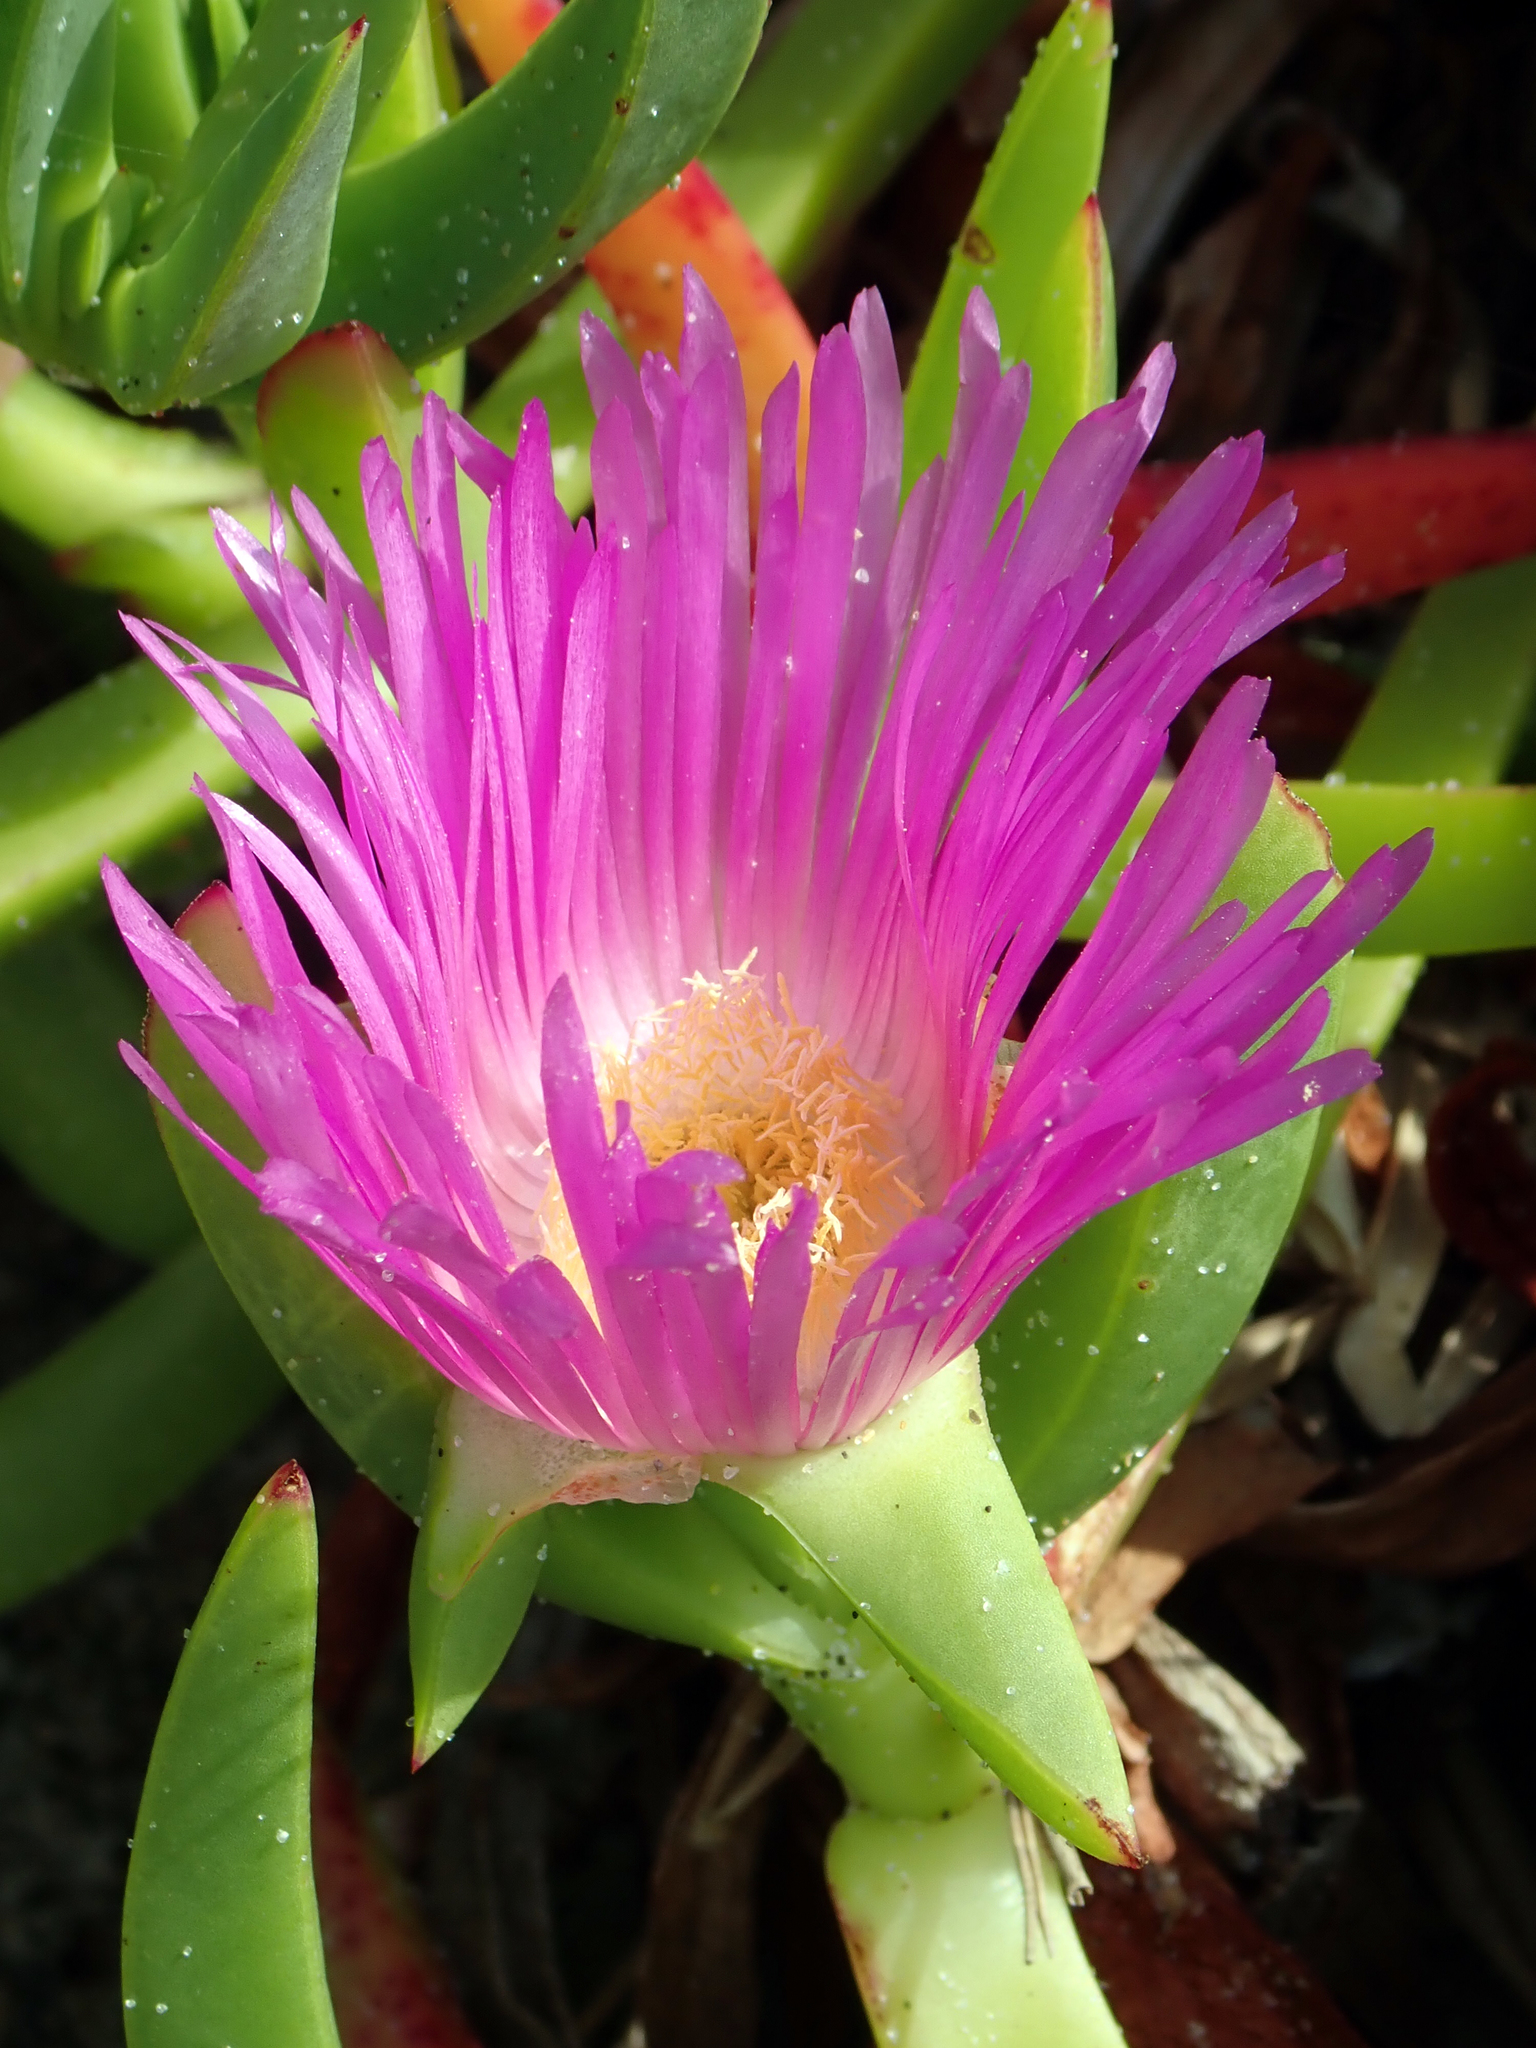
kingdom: Plantae
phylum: Tracheophyta
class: Magnoliopsida
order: Caryophyllales
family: Aizoaceae
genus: Carpobrotus
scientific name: Carpobrotus chilensis
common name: Sea fig
